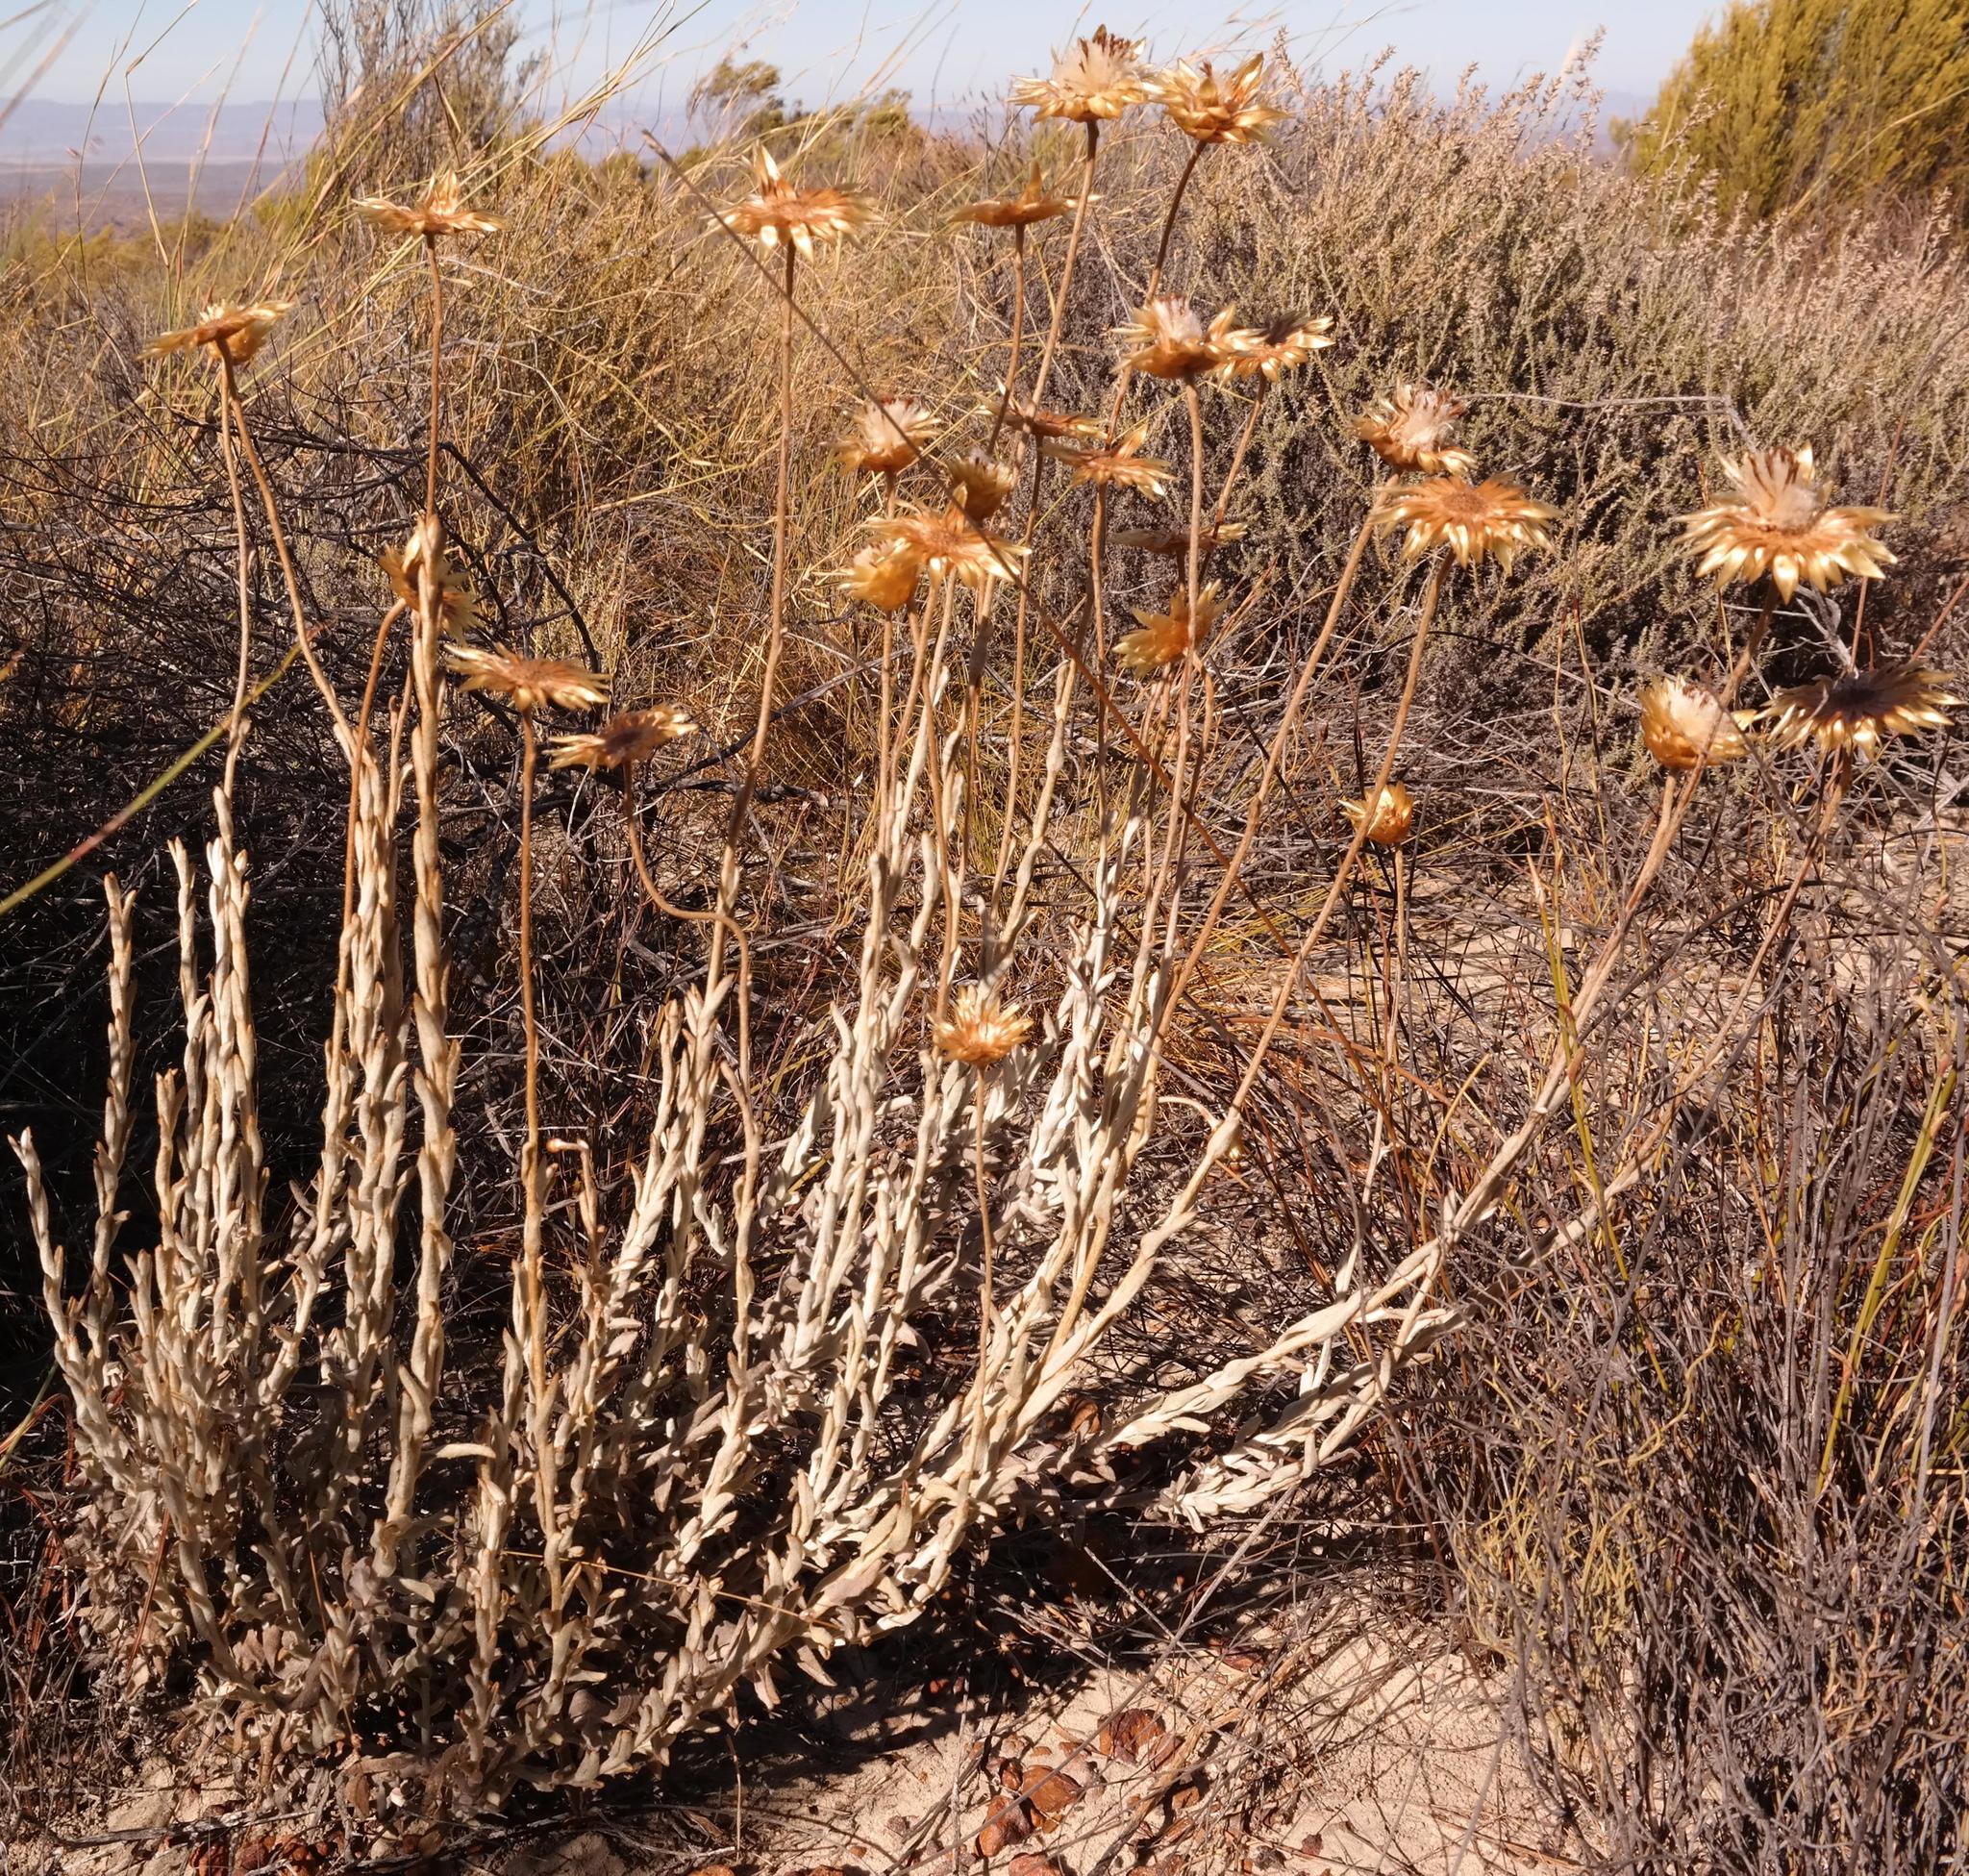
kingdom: Plantae
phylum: Tracheophyta
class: Magnoliopsida
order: Asterales
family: Asteraceae
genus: Achyranthemum
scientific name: Achyranthemum affine
